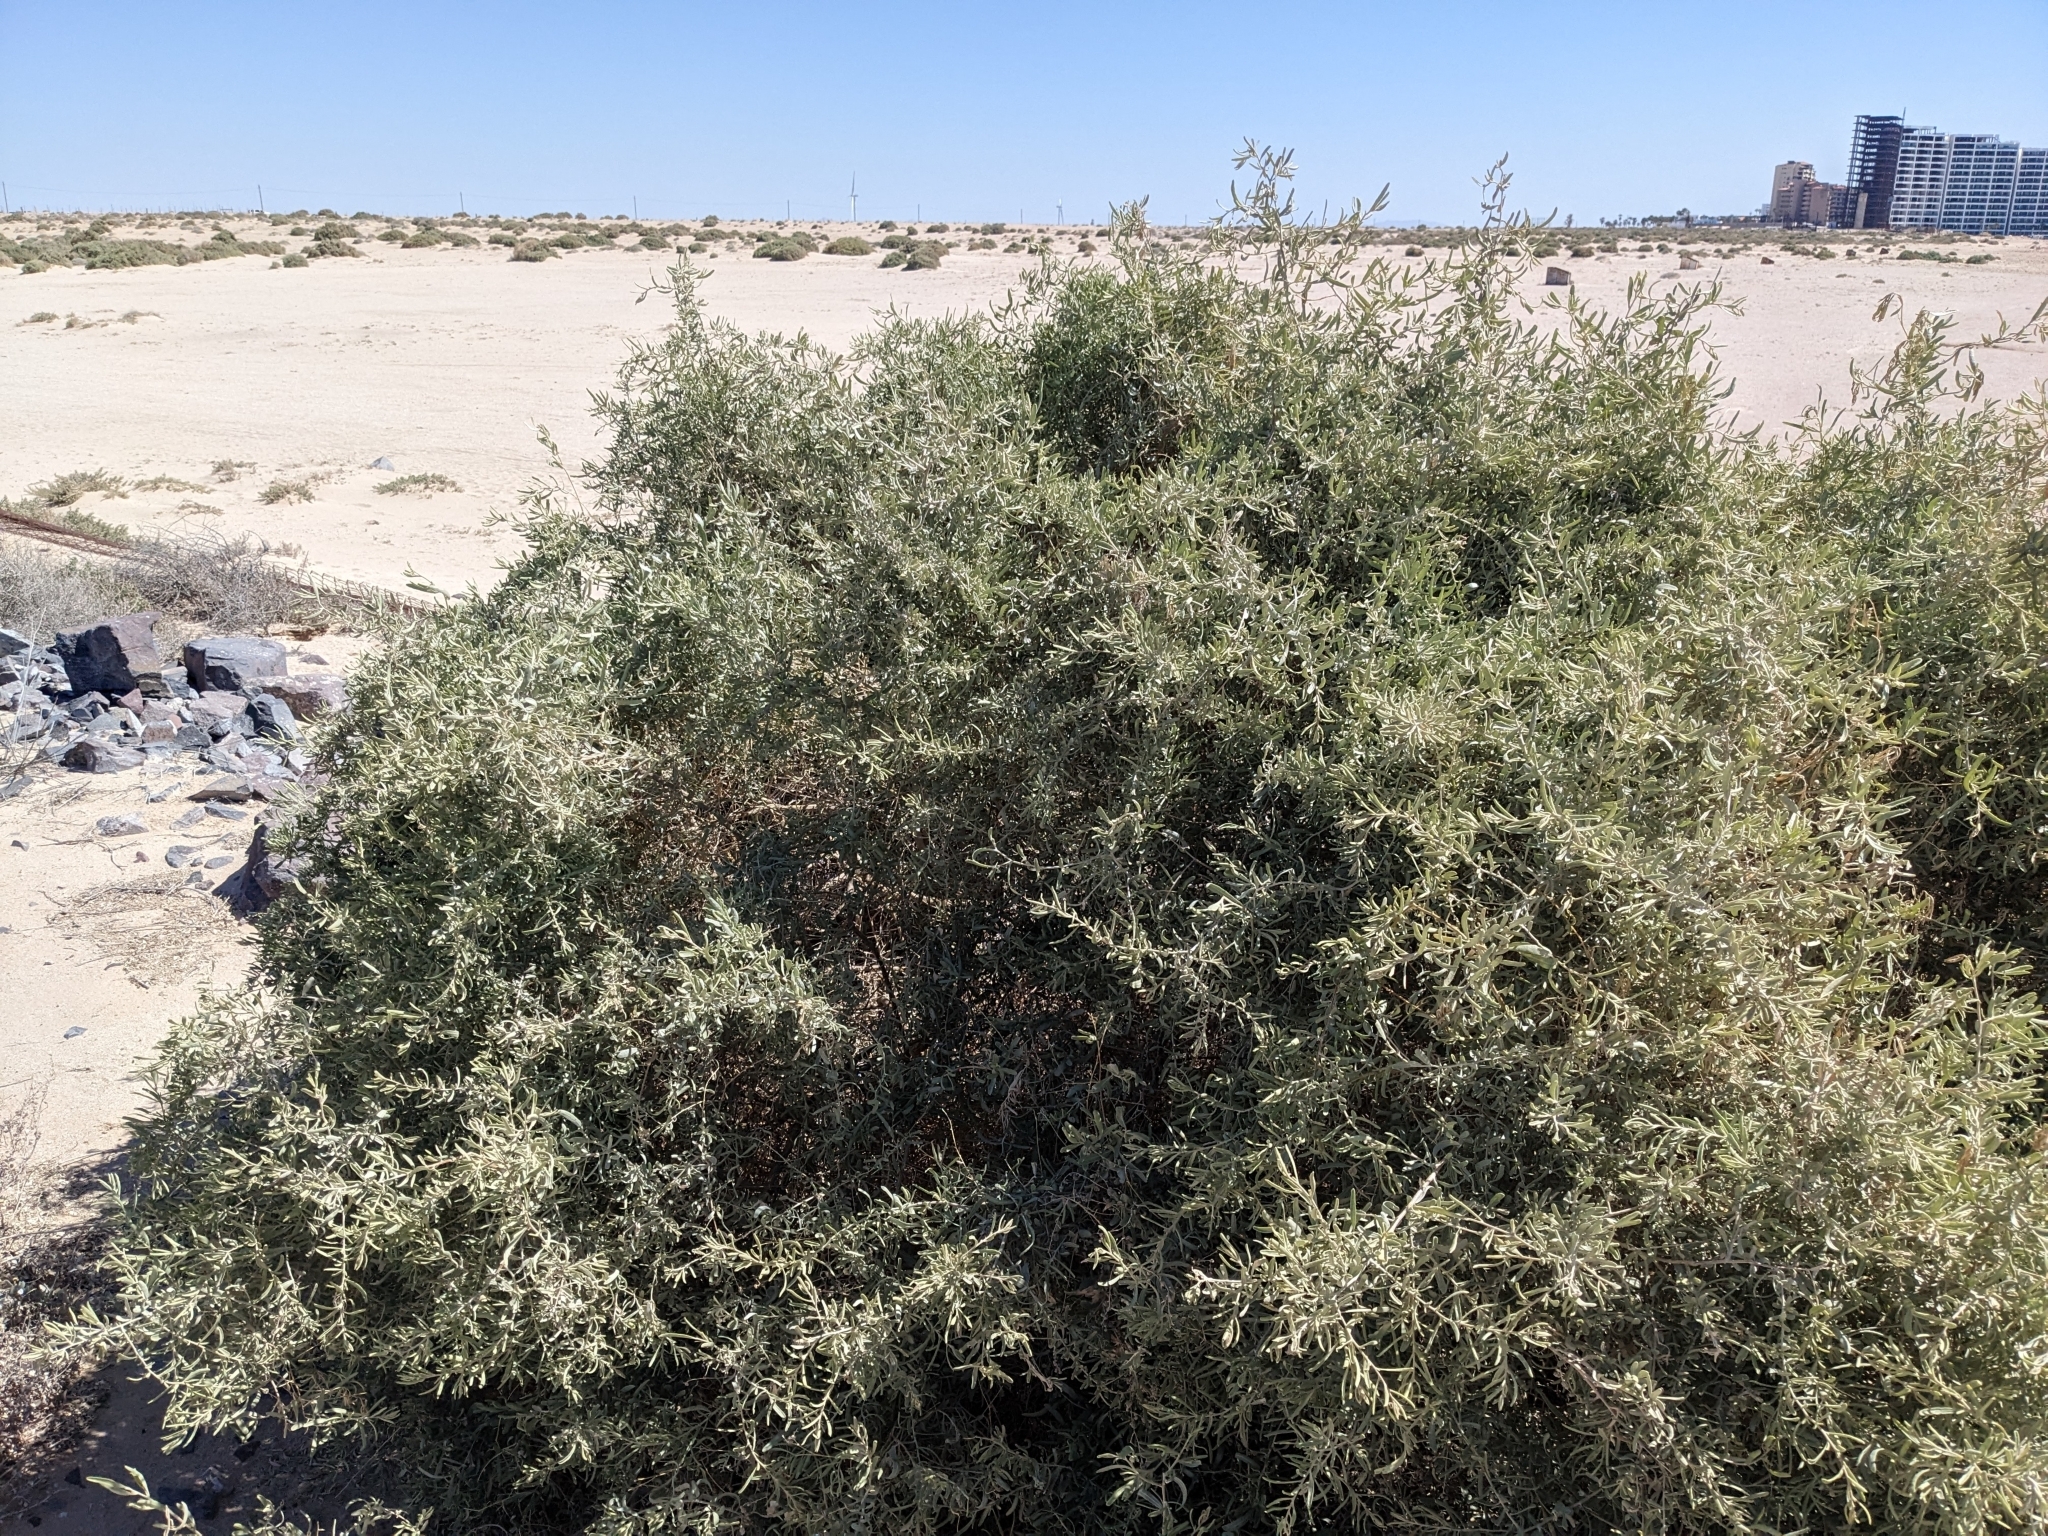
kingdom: Plantae
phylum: Tracheophyta
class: Magnoliopsida
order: Caryophyllales
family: Amaranthaceae
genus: Atriplex
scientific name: Atriplex canescens
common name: Four-wing saltbush
